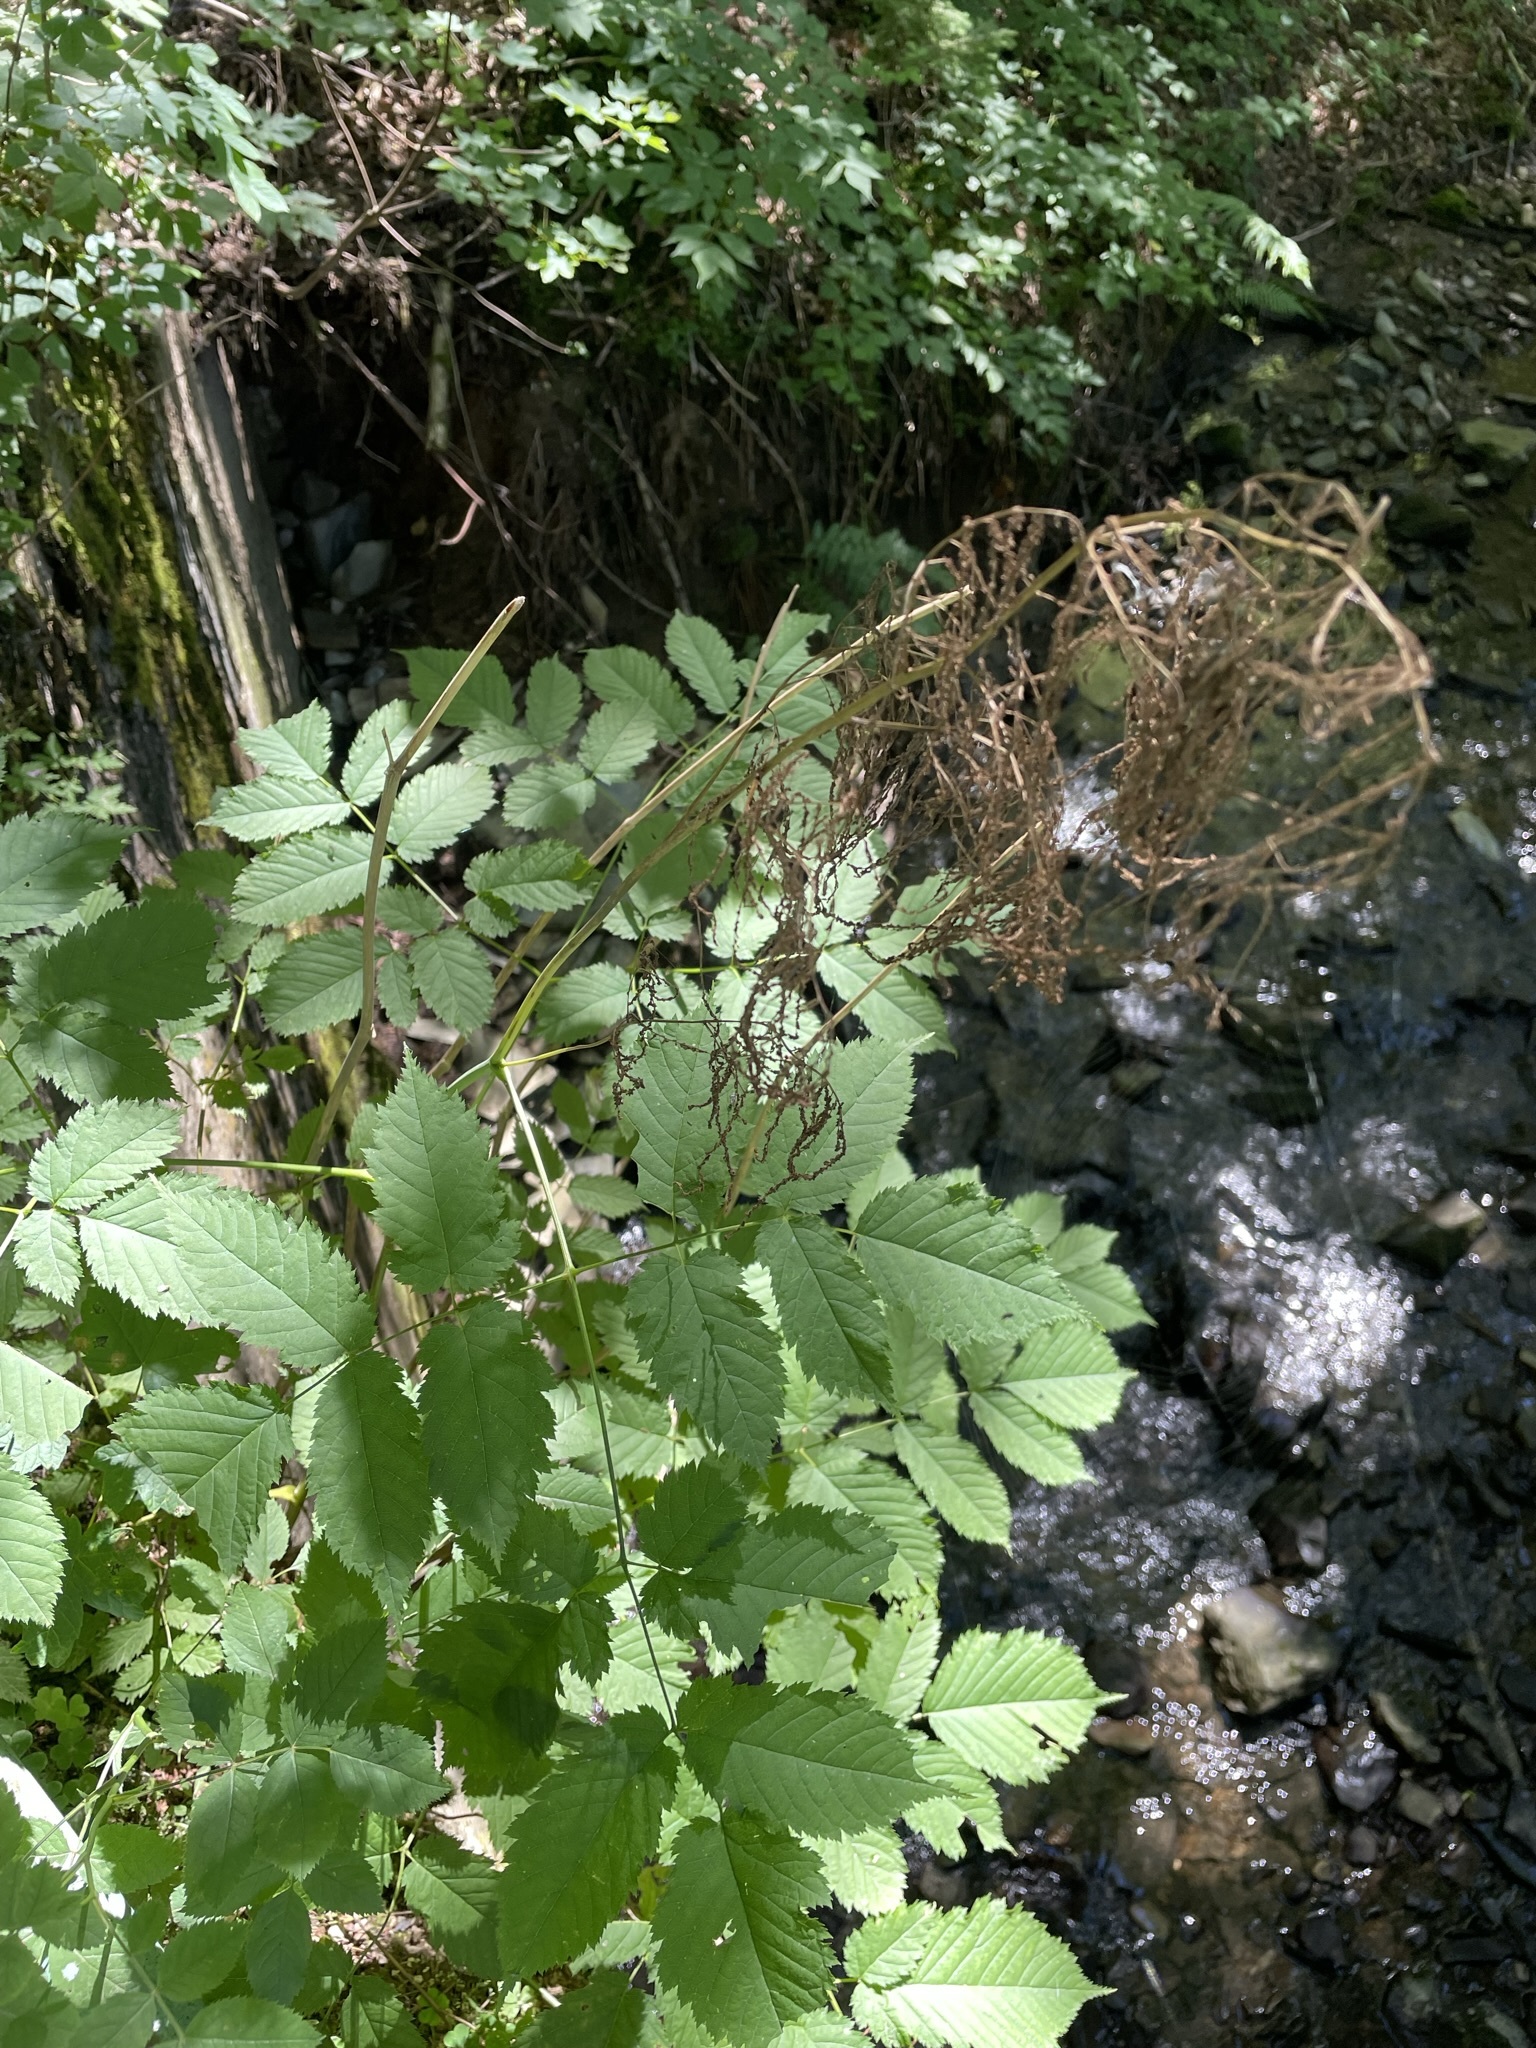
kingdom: Plantae
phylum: Tracheophyta
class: Magnoliopsida
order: Rosales
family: Rosaceae
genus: Aruncus
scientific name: Aruncus dioicus
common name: Buck's-beard
